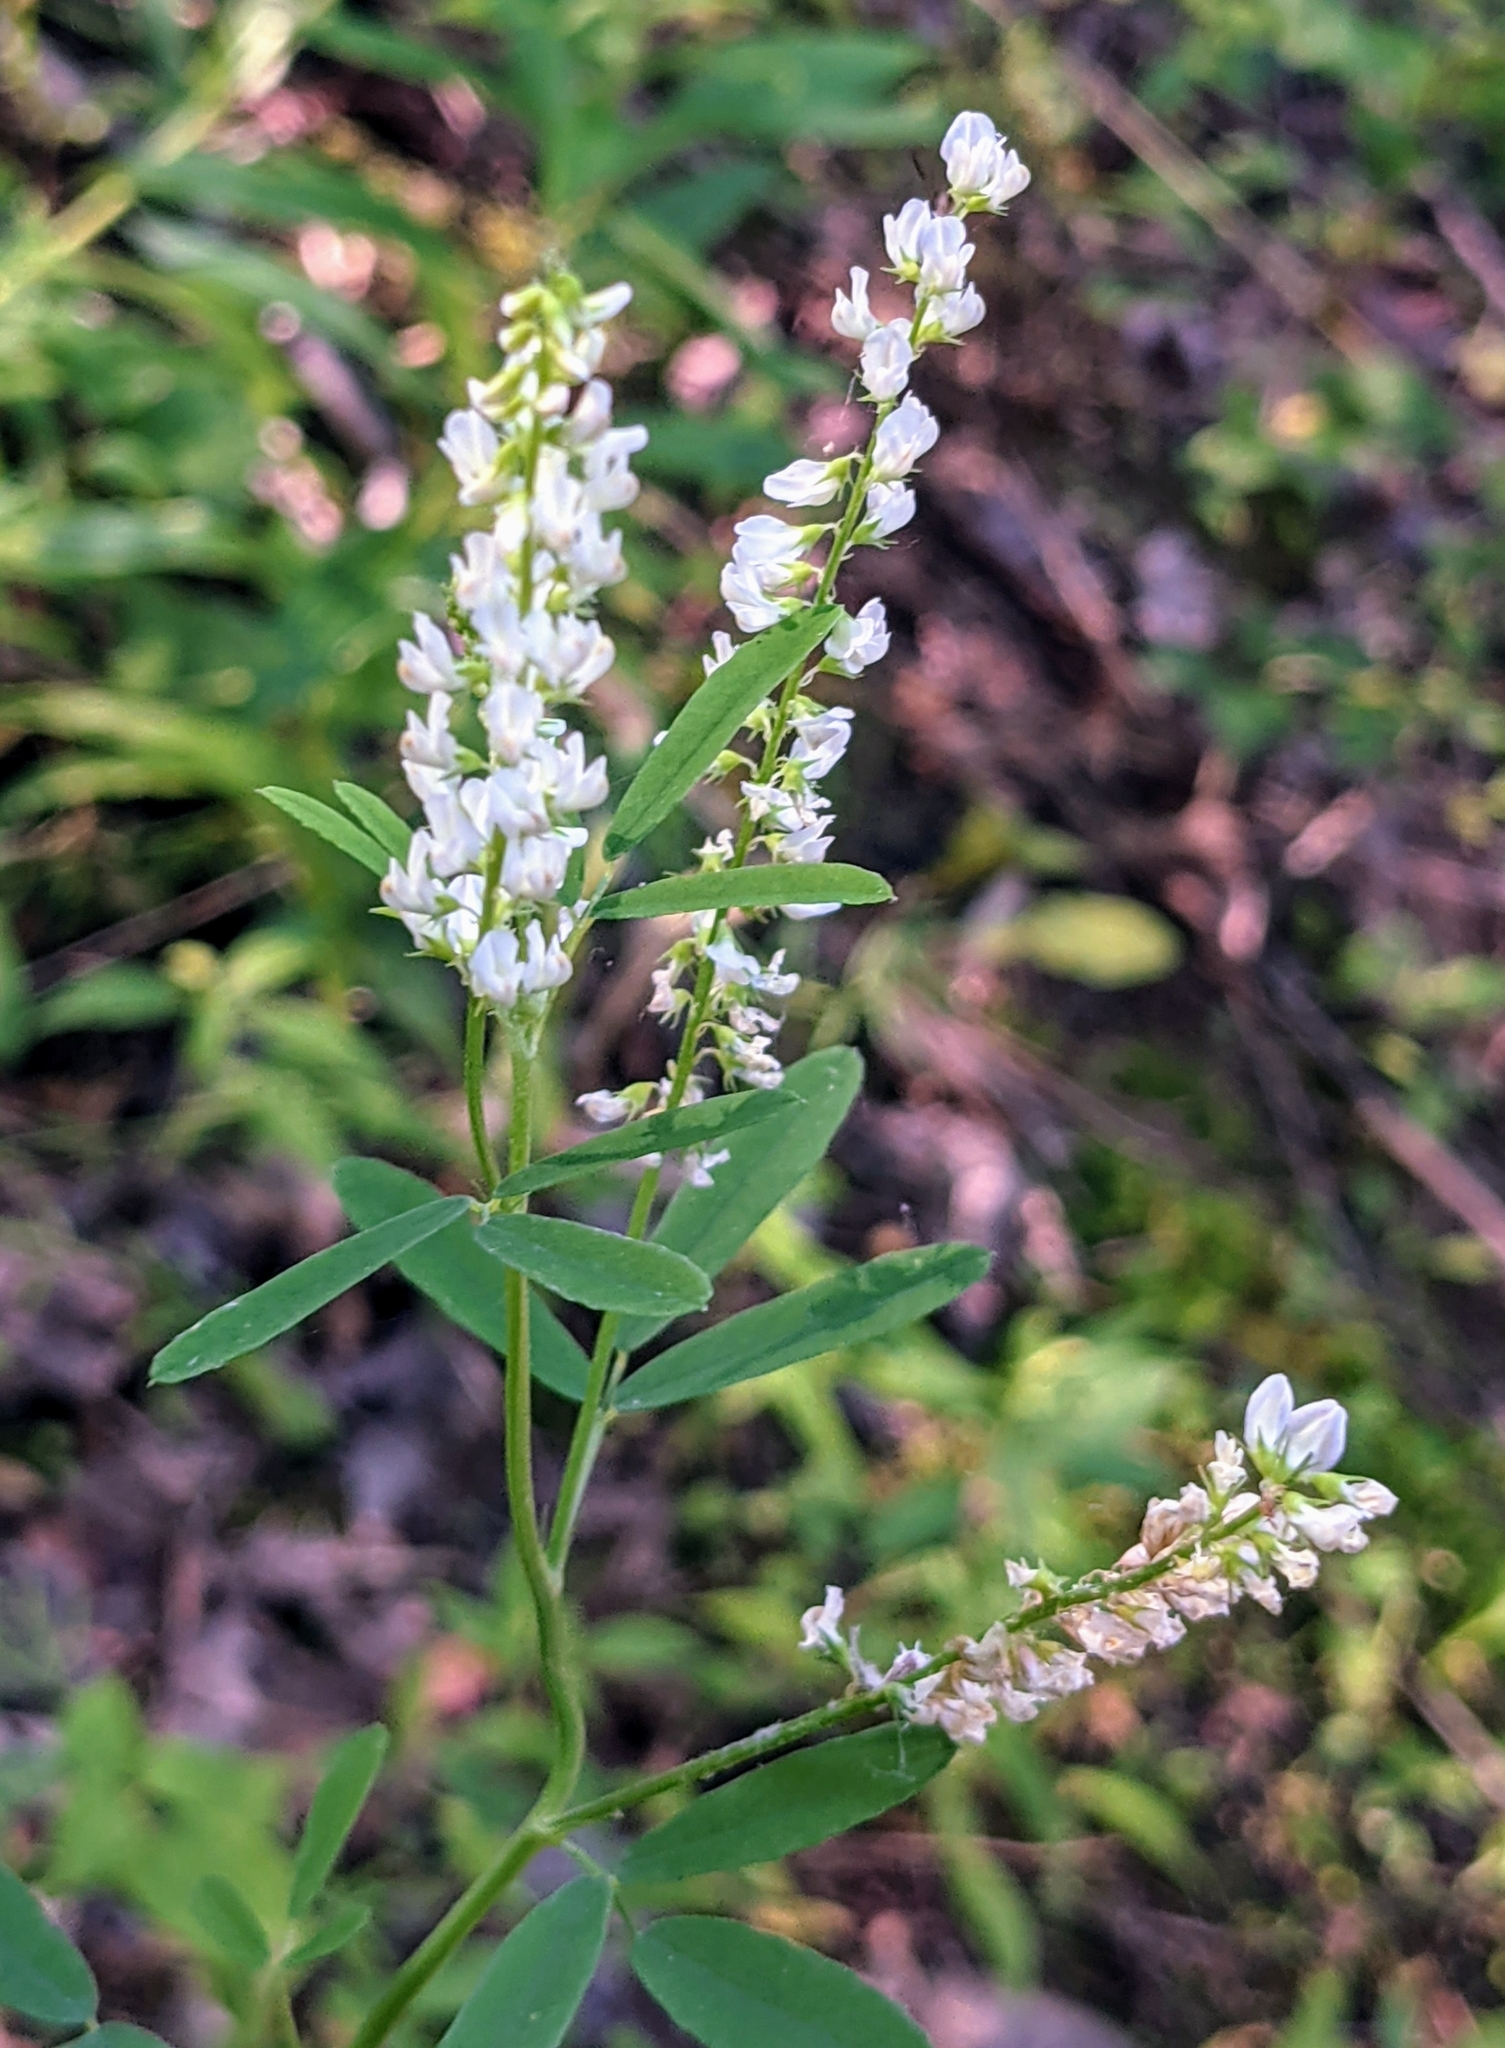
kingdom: Plantae
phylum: Tracheophyta
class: Magnoliopsida
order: Fabales
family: Fabaceae
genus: Melilotus
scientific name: Melilotus albus
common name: White melilot
